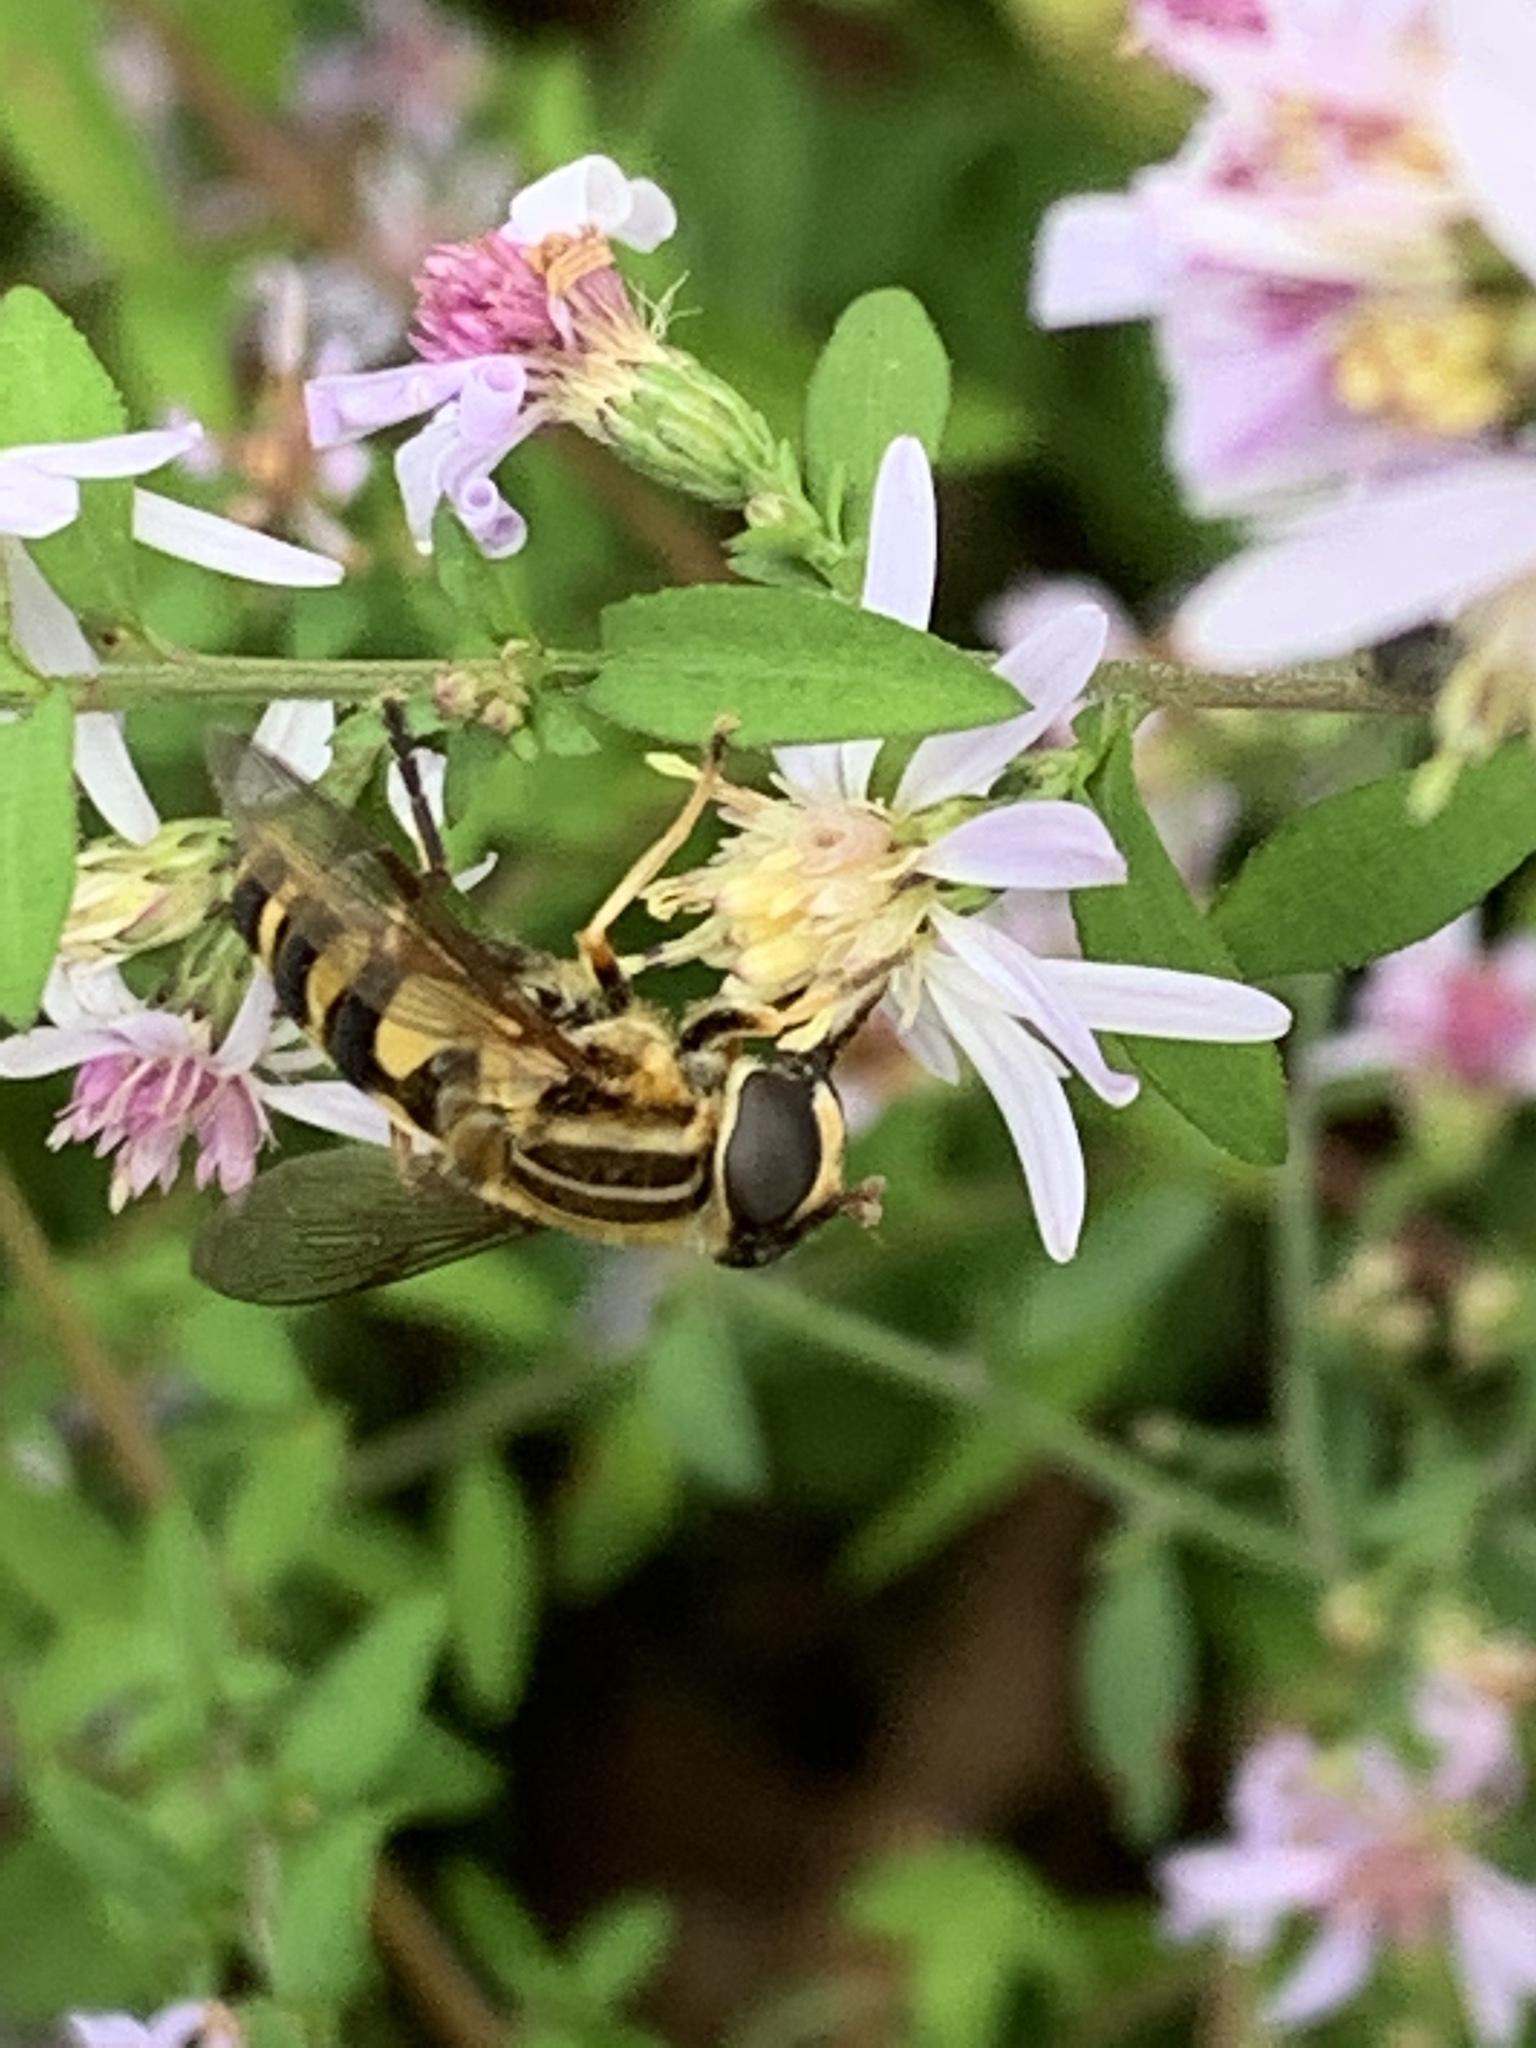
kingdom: Animalia
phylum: Arthropoda
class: Insecta
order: Diptera
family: Syrphidae
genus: Helophilus
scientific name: Helophilus fasciatus
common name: Narrow-headed marsh fly
